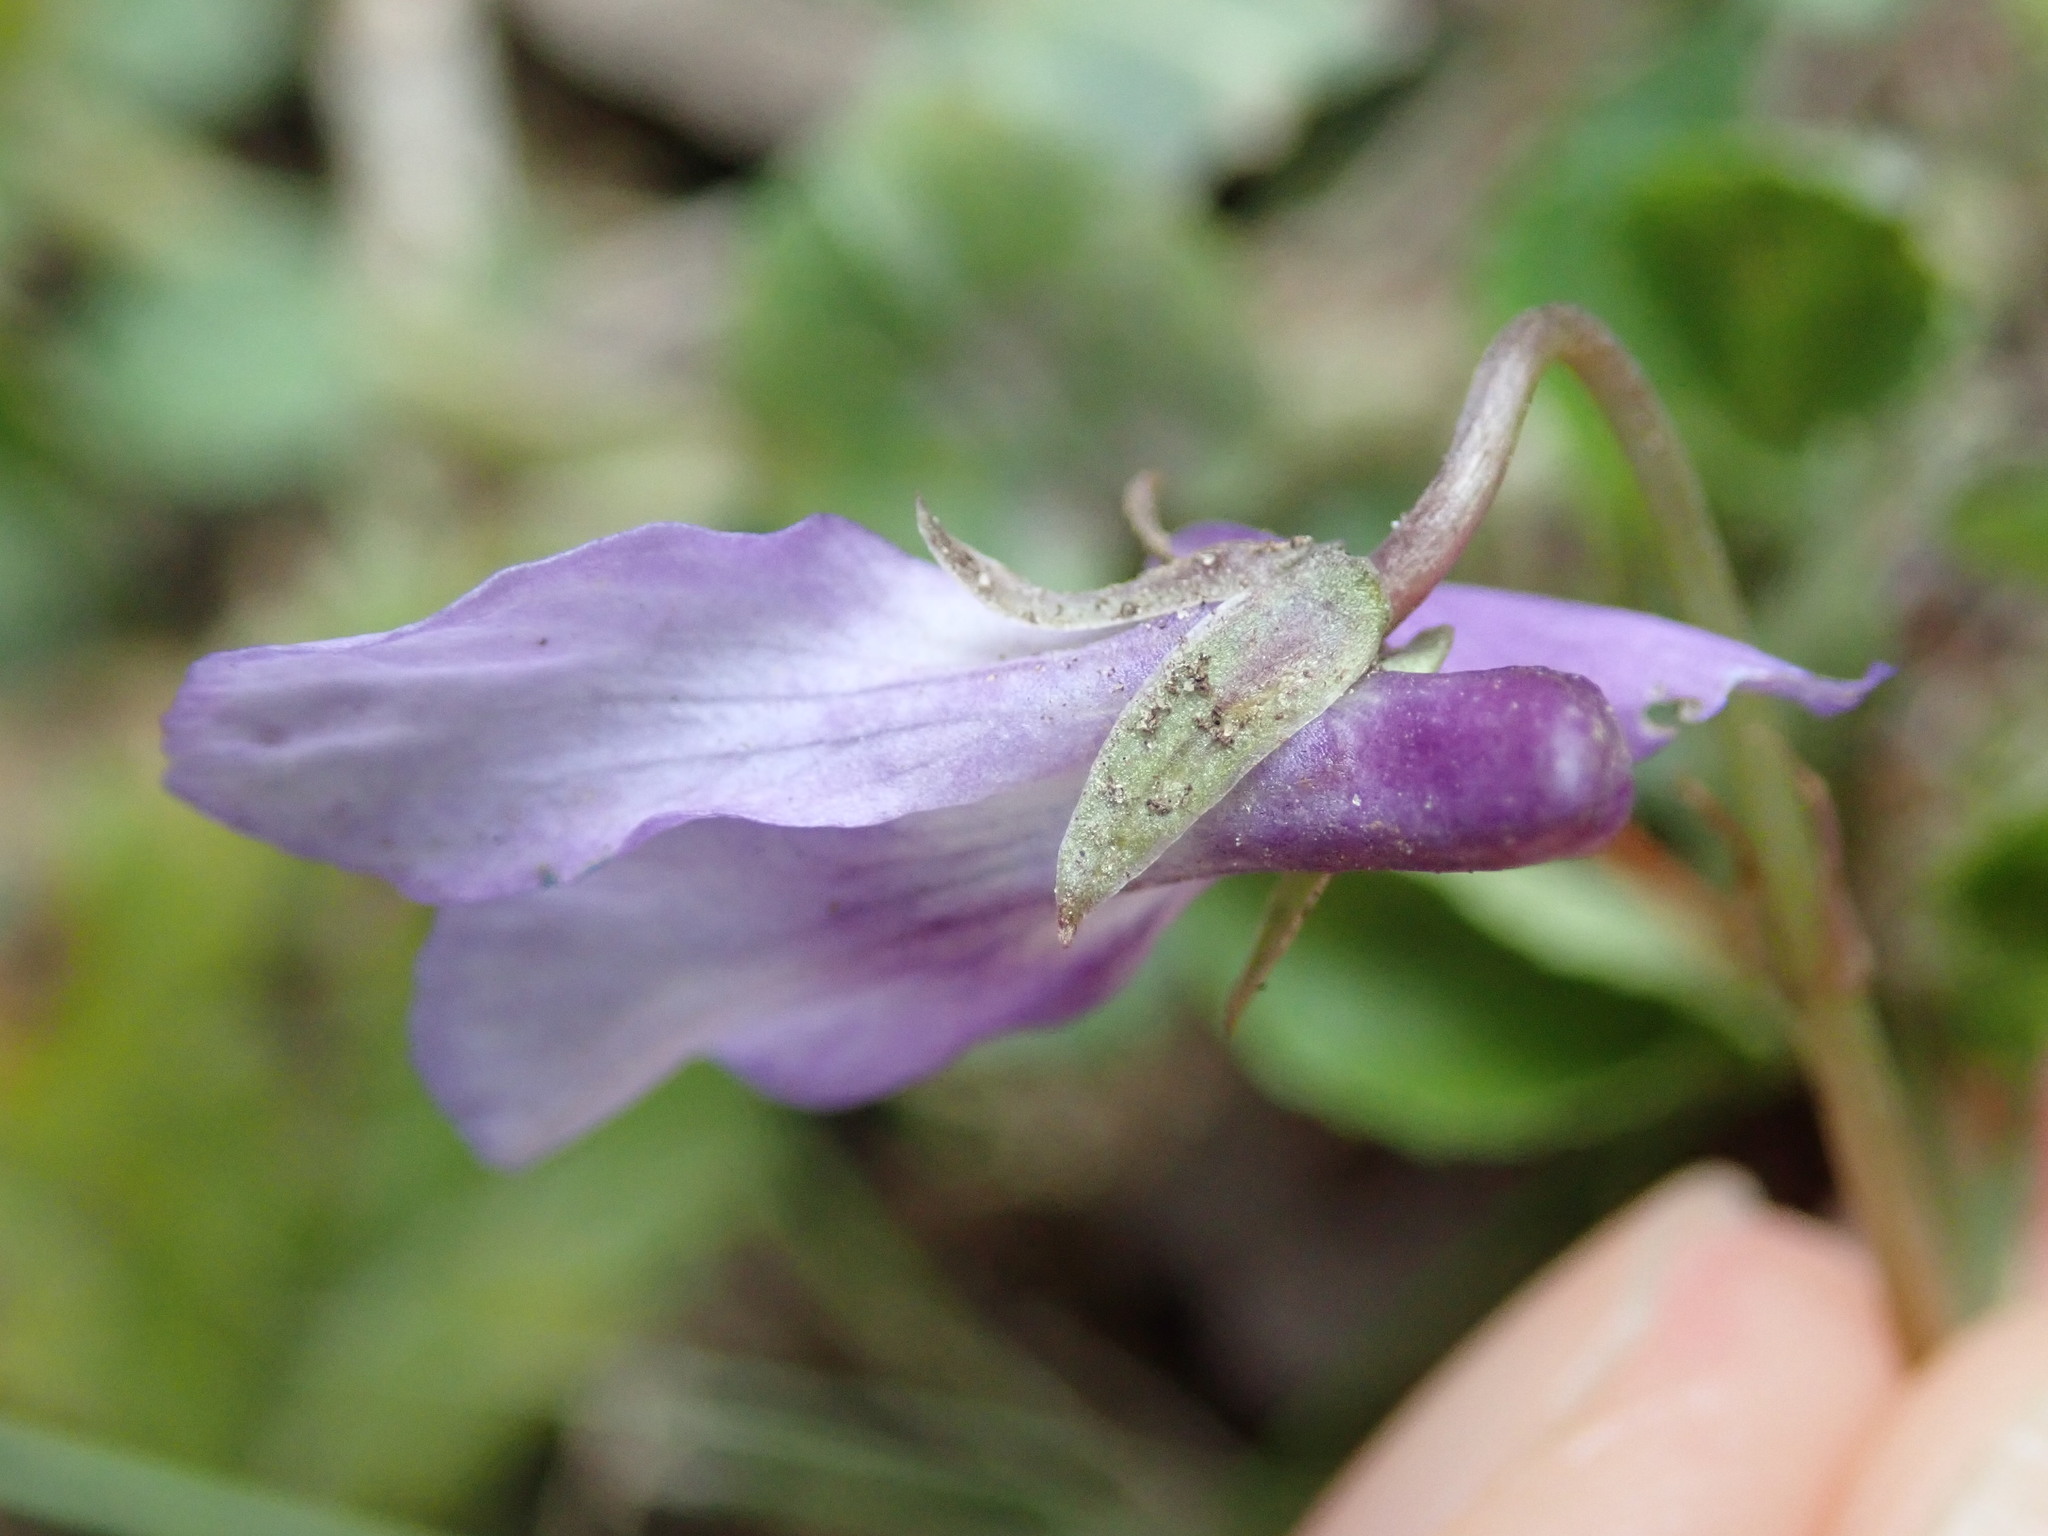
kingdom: Plantae
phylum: Tracheophyta
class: Magnoliopsida
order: Malpighiales
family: Violaceae
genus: Viola
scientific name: Viola reichenbachiana
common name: Early dog-violet
